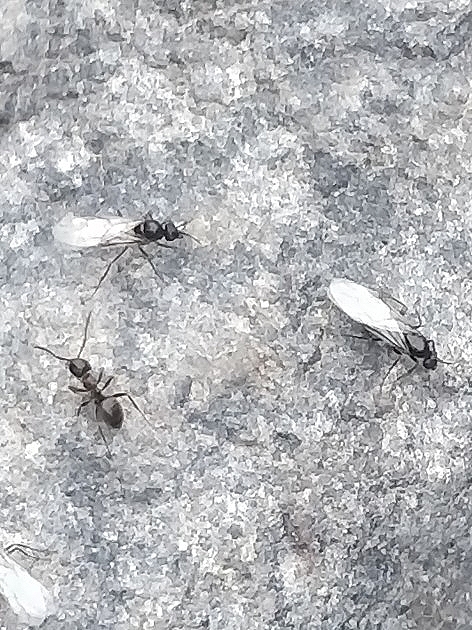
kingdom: Animalia
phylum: Arthropoda
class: Insecta
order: Hymenoptera
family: Formicidae
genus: Lasius
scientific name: Lasius grandis
